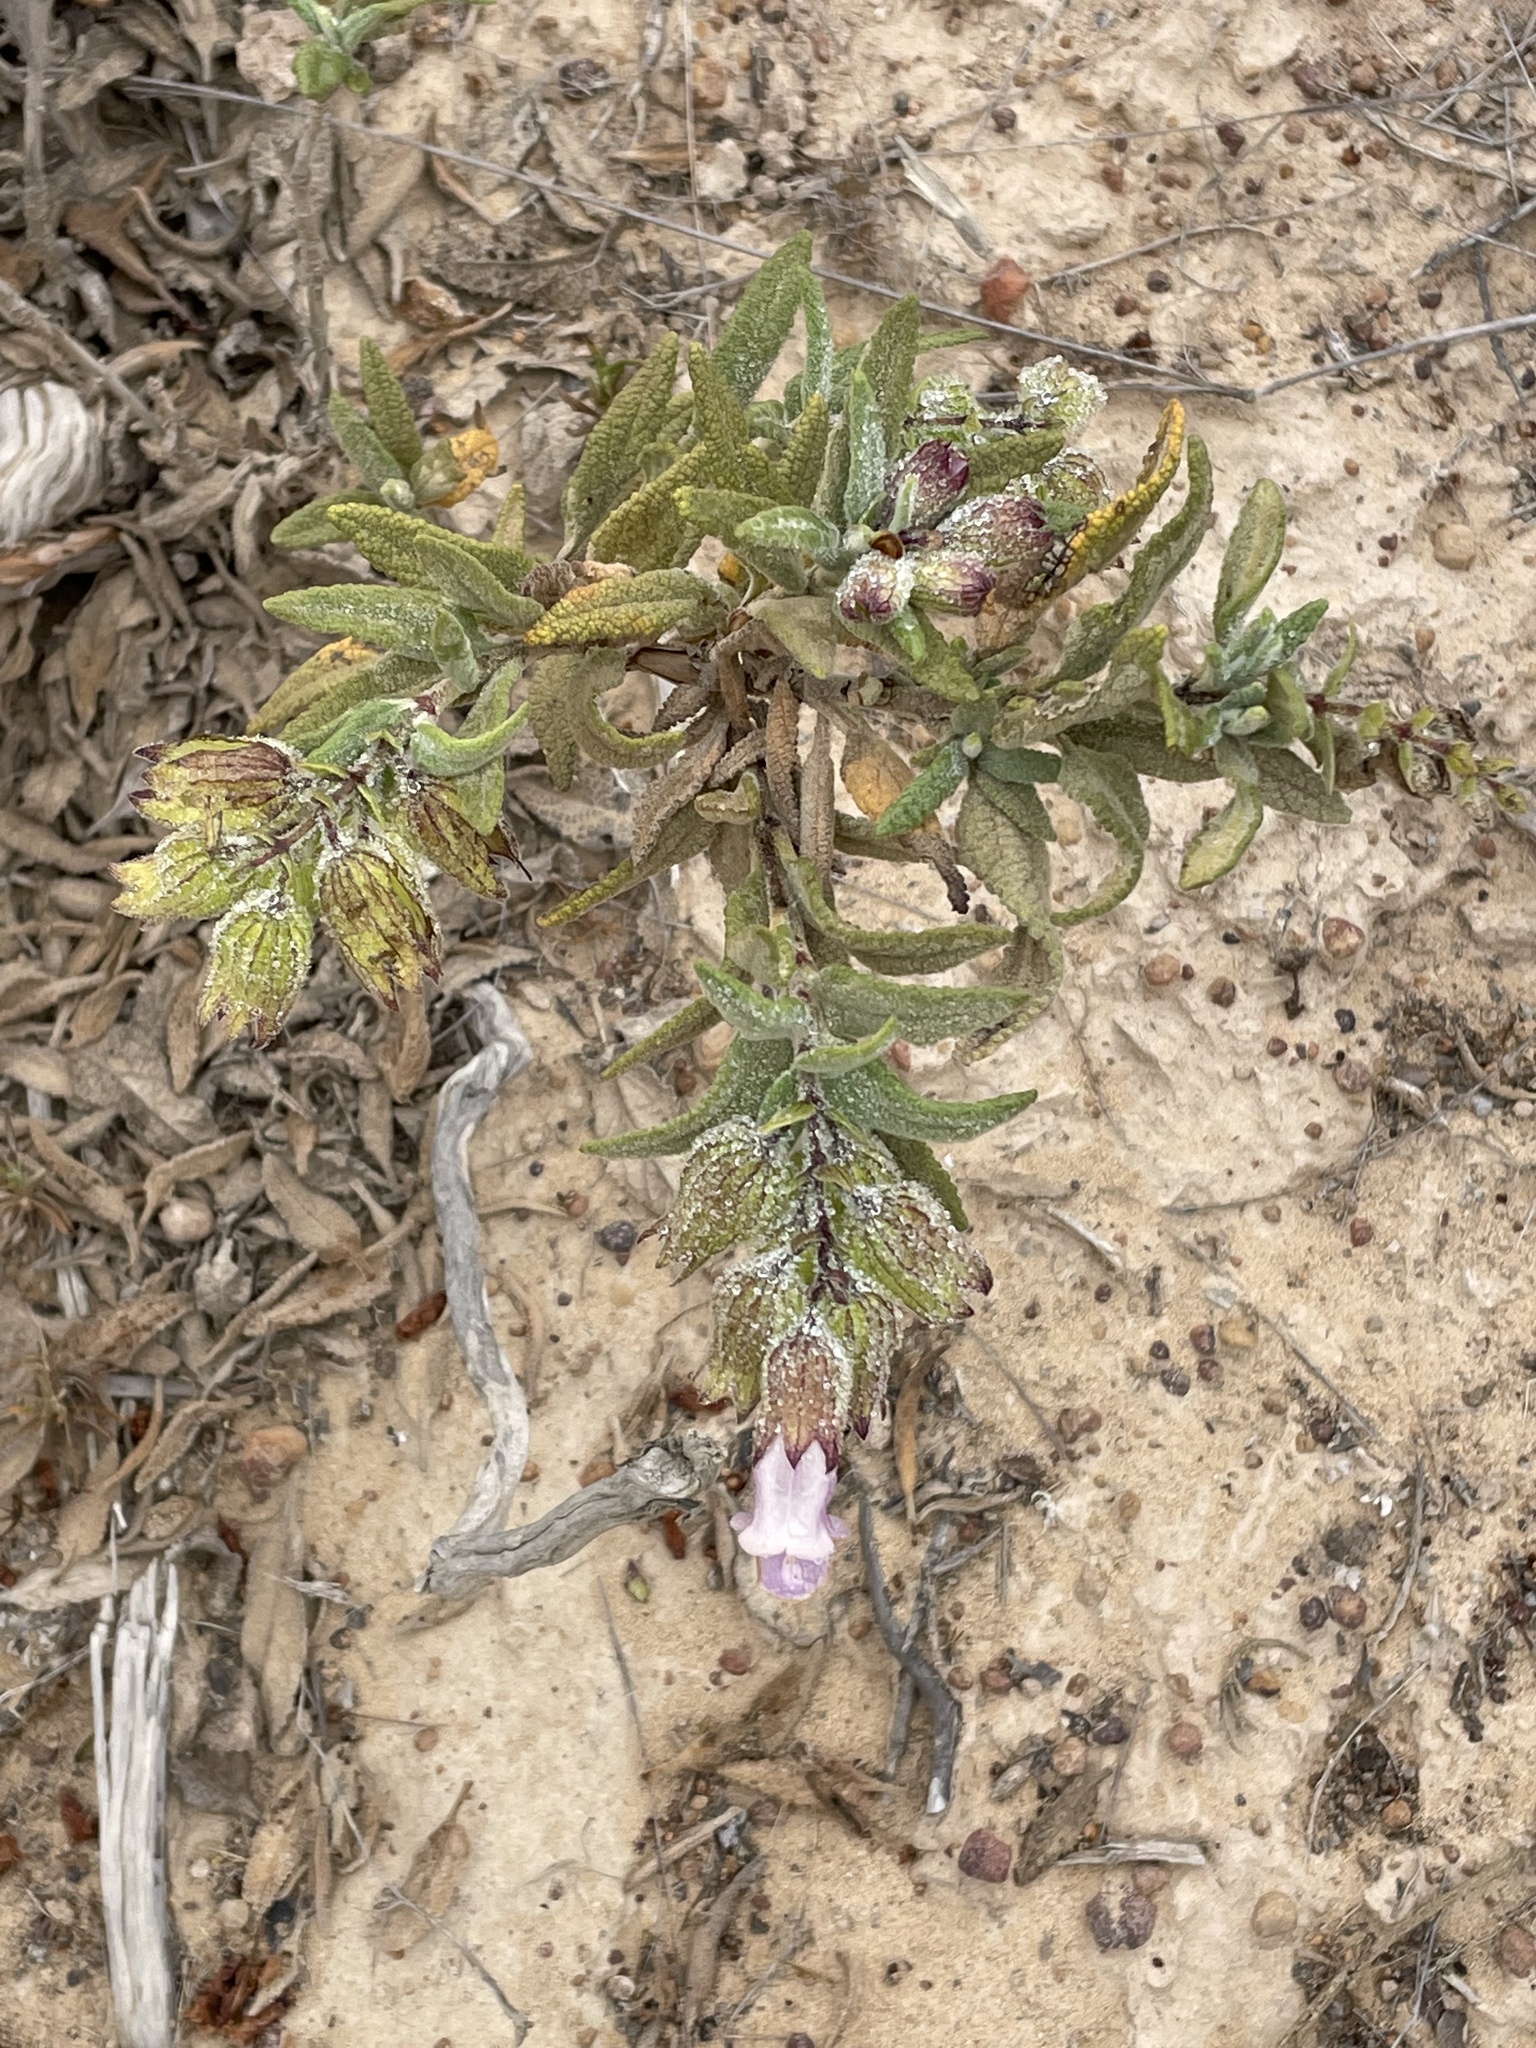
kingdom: Plantae
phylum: Tracheophyta
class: Magnoliopsida
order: Lamiales
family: Lamiaceae
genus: Lepechinia
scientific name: Lepechinia calycina
